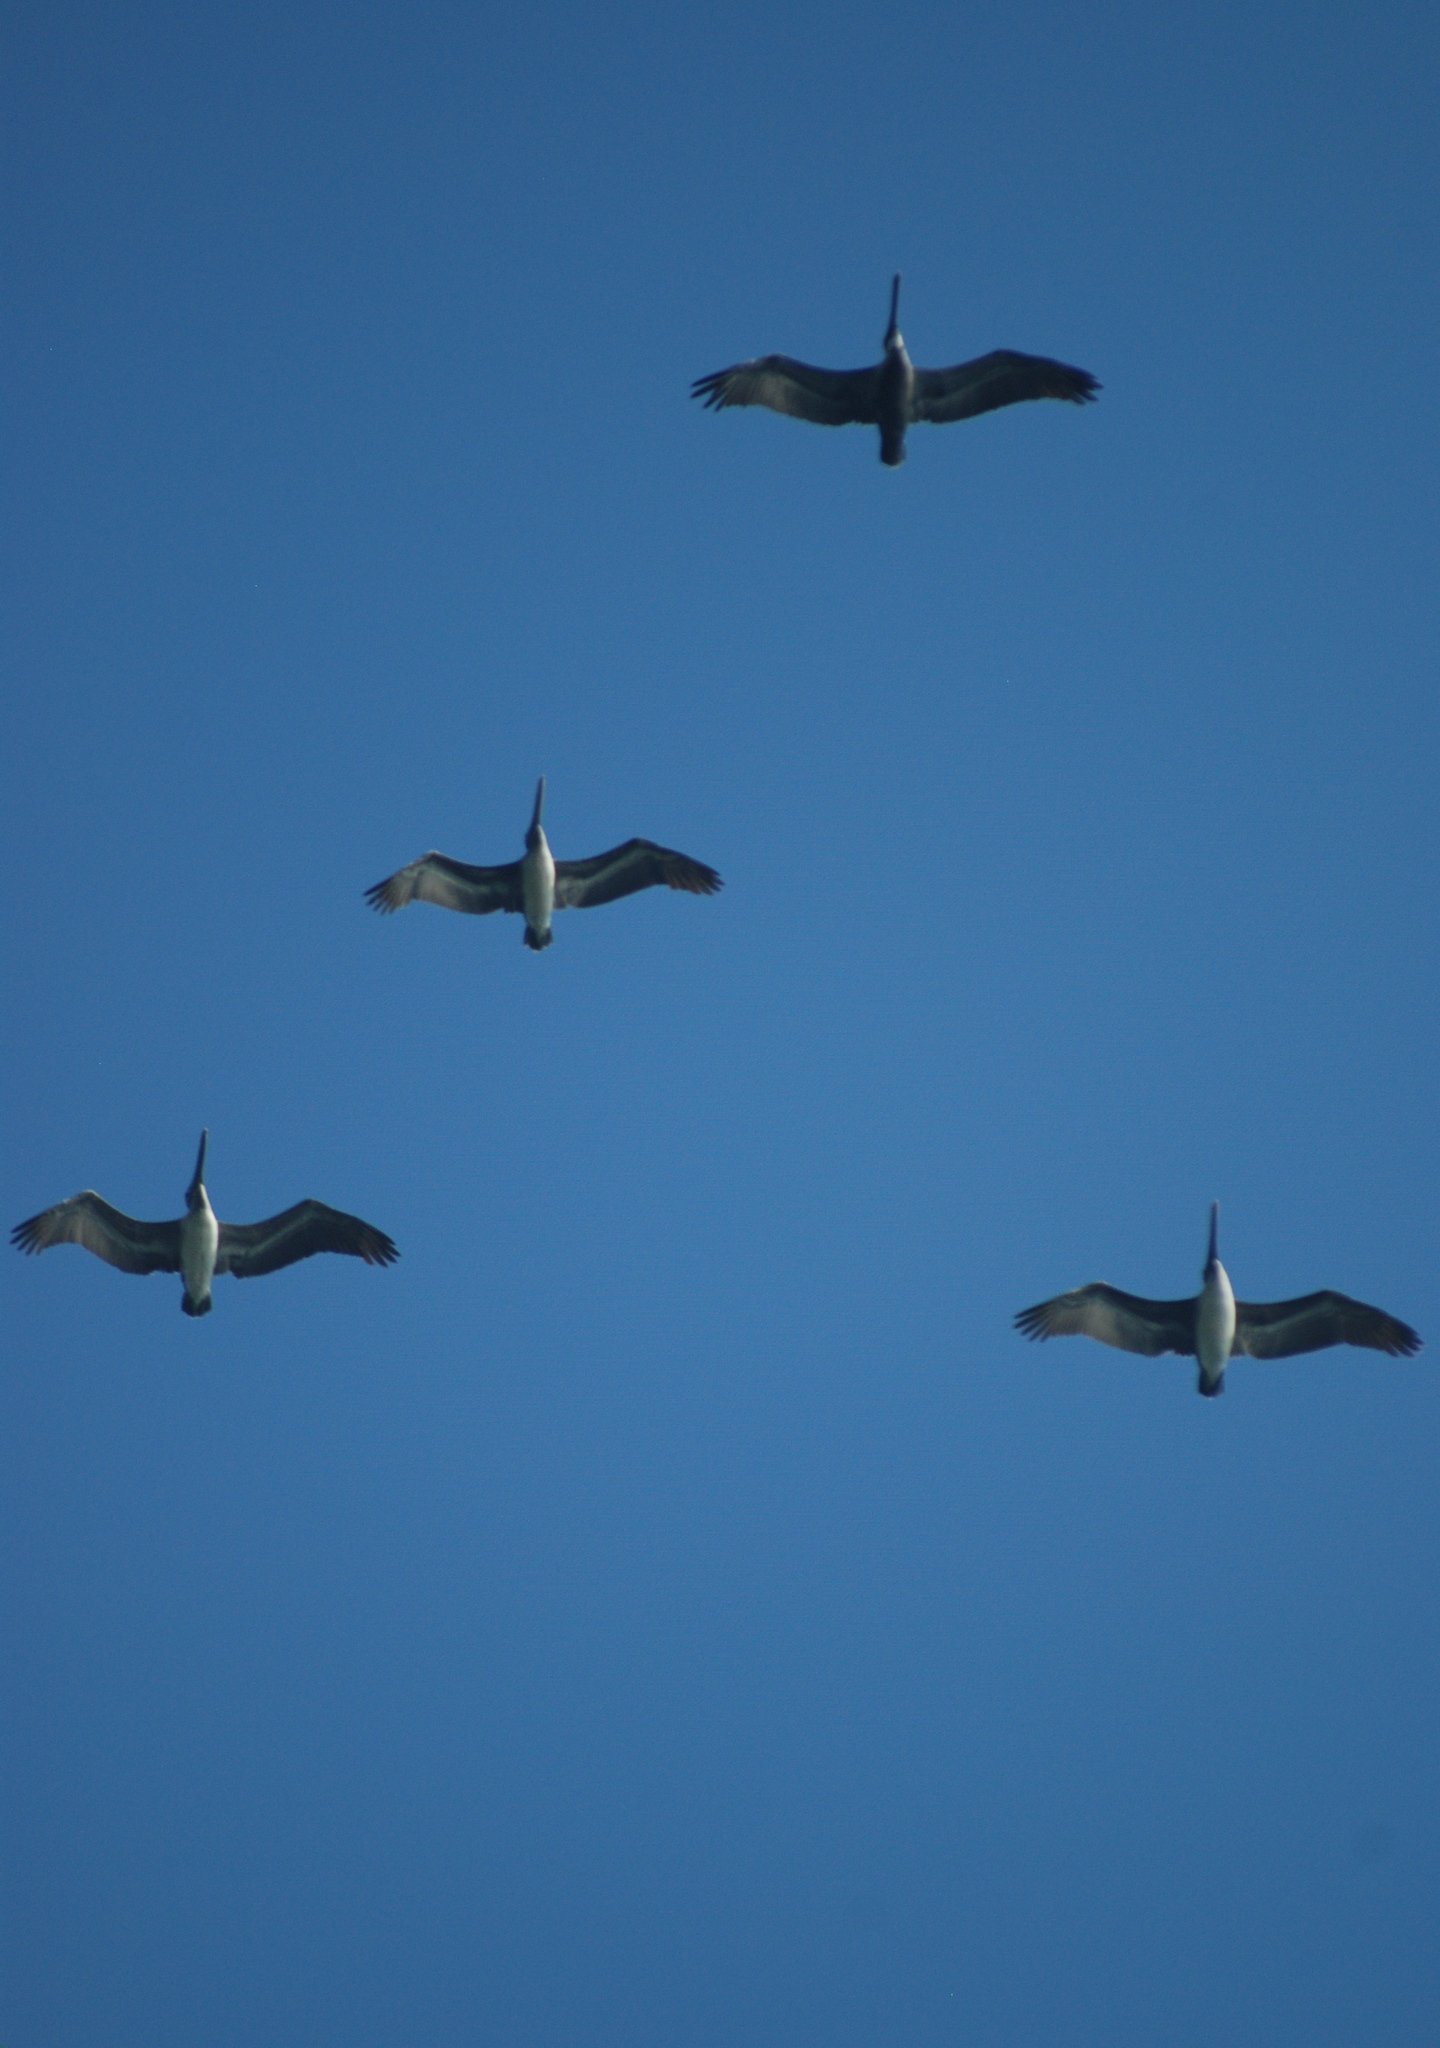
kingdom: Animalia
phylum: Chordata
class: Aves
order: Pelecaniformes
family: Pelecanidae
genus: Pelecanus
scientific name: Pelecanus occidentalis
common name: Brown pelican
